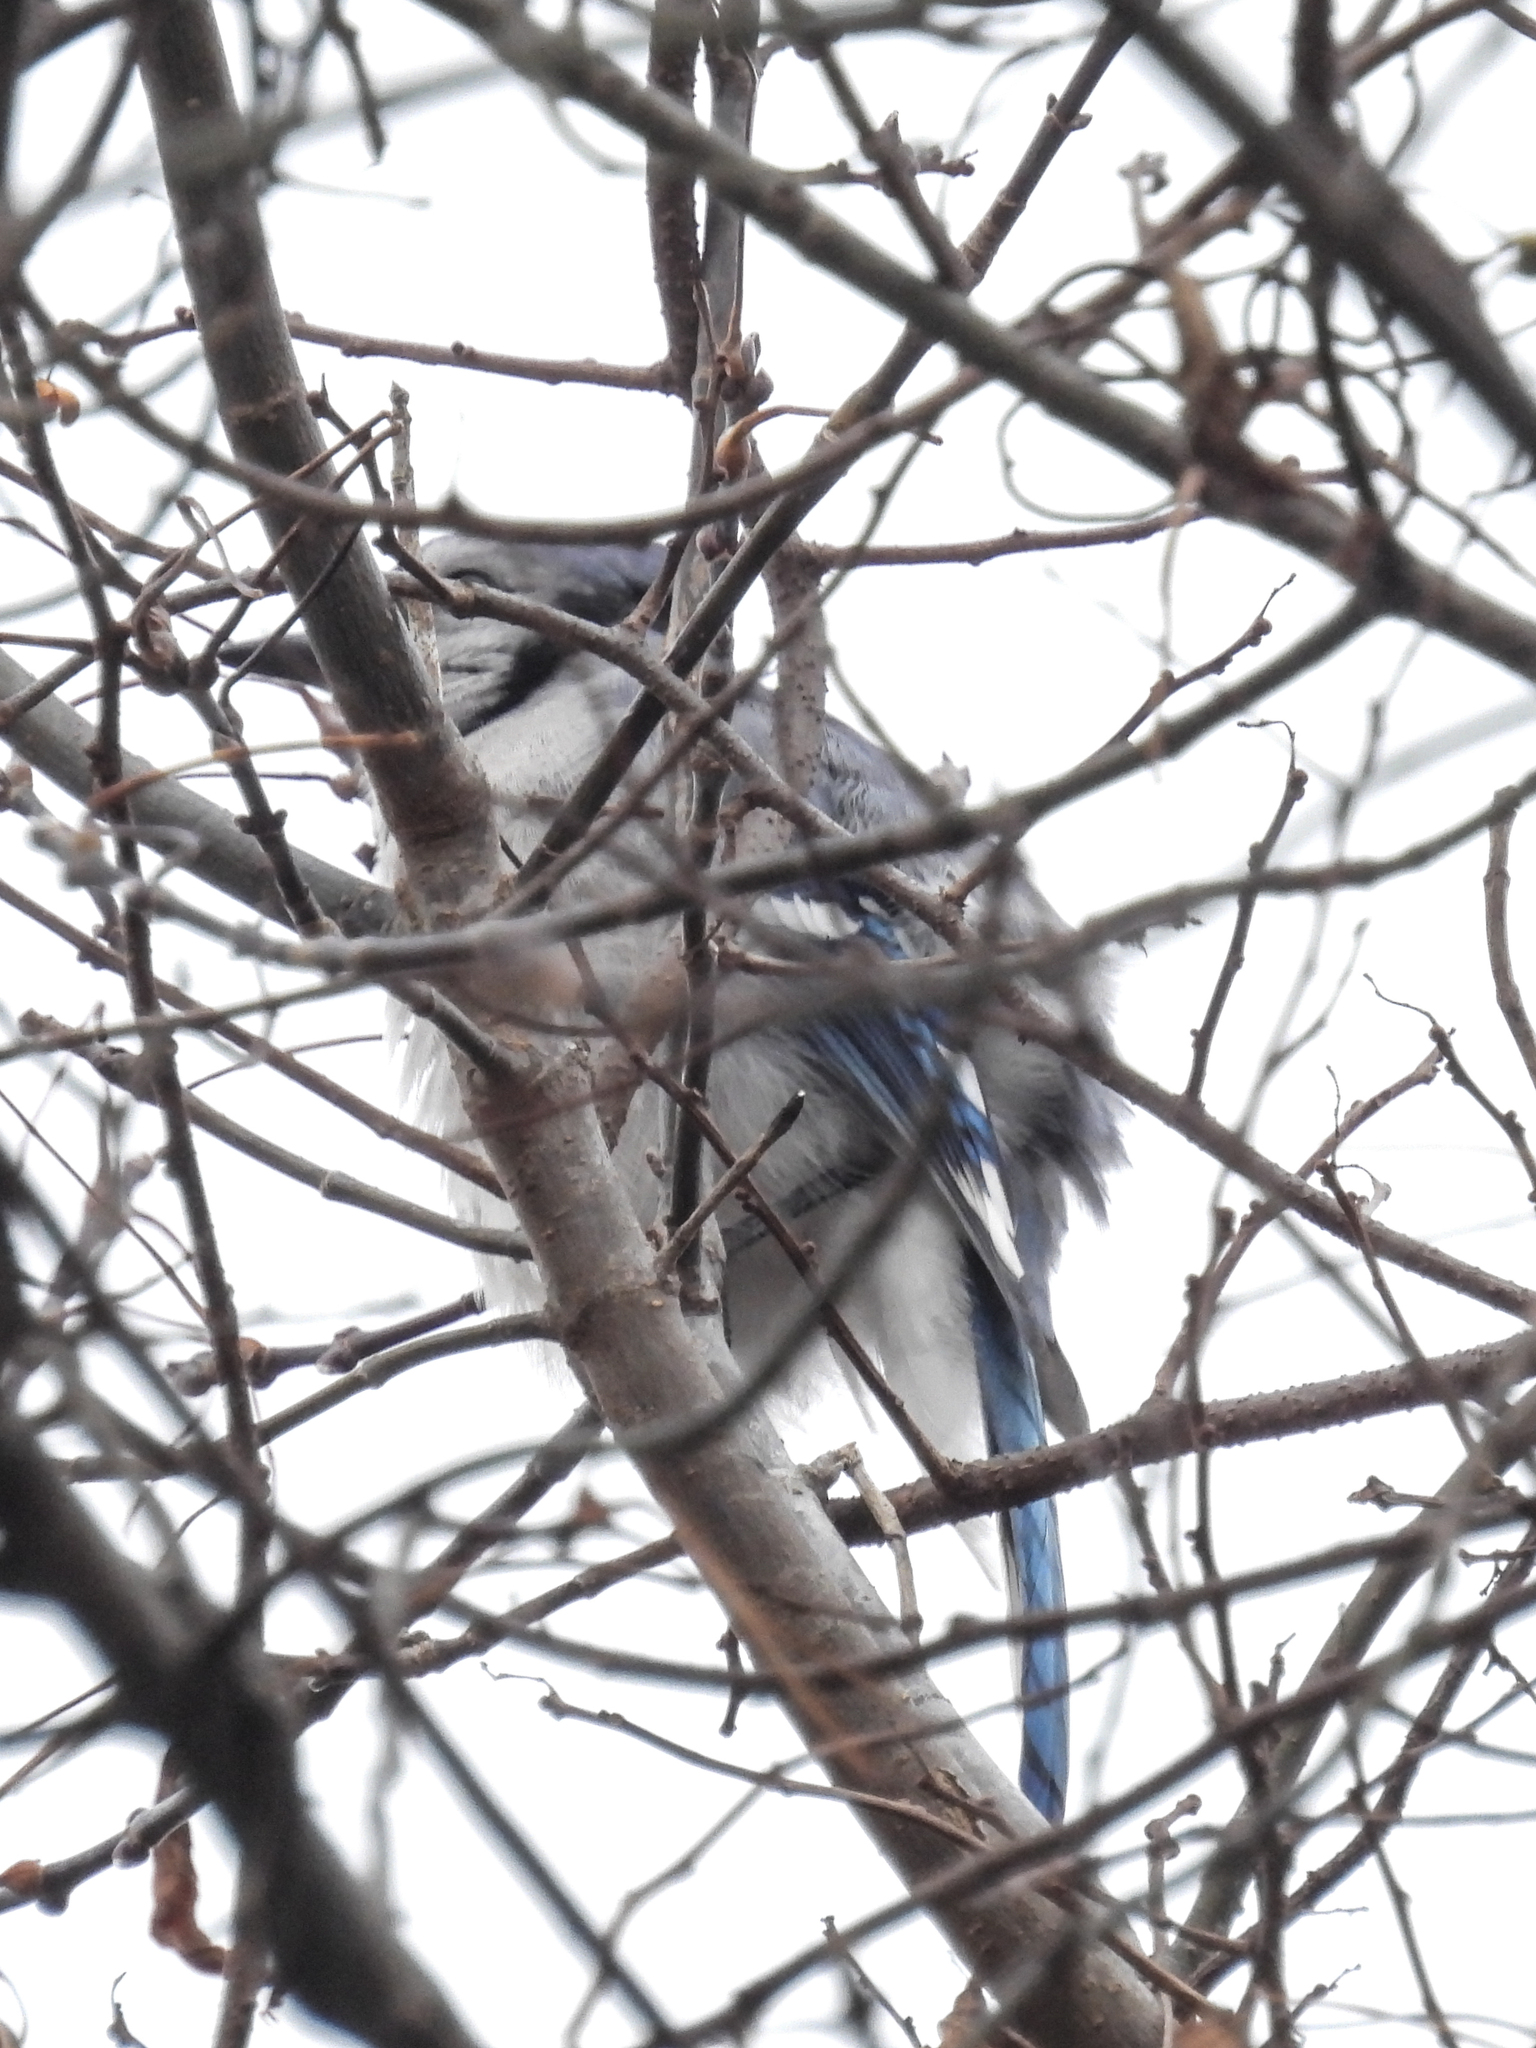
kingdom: Animalia
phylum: Chordata
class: Aves
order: Passeriformes
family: Corvidae
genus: Cyanocitta
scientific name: Cyanocitta cristata
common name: Blue jay
